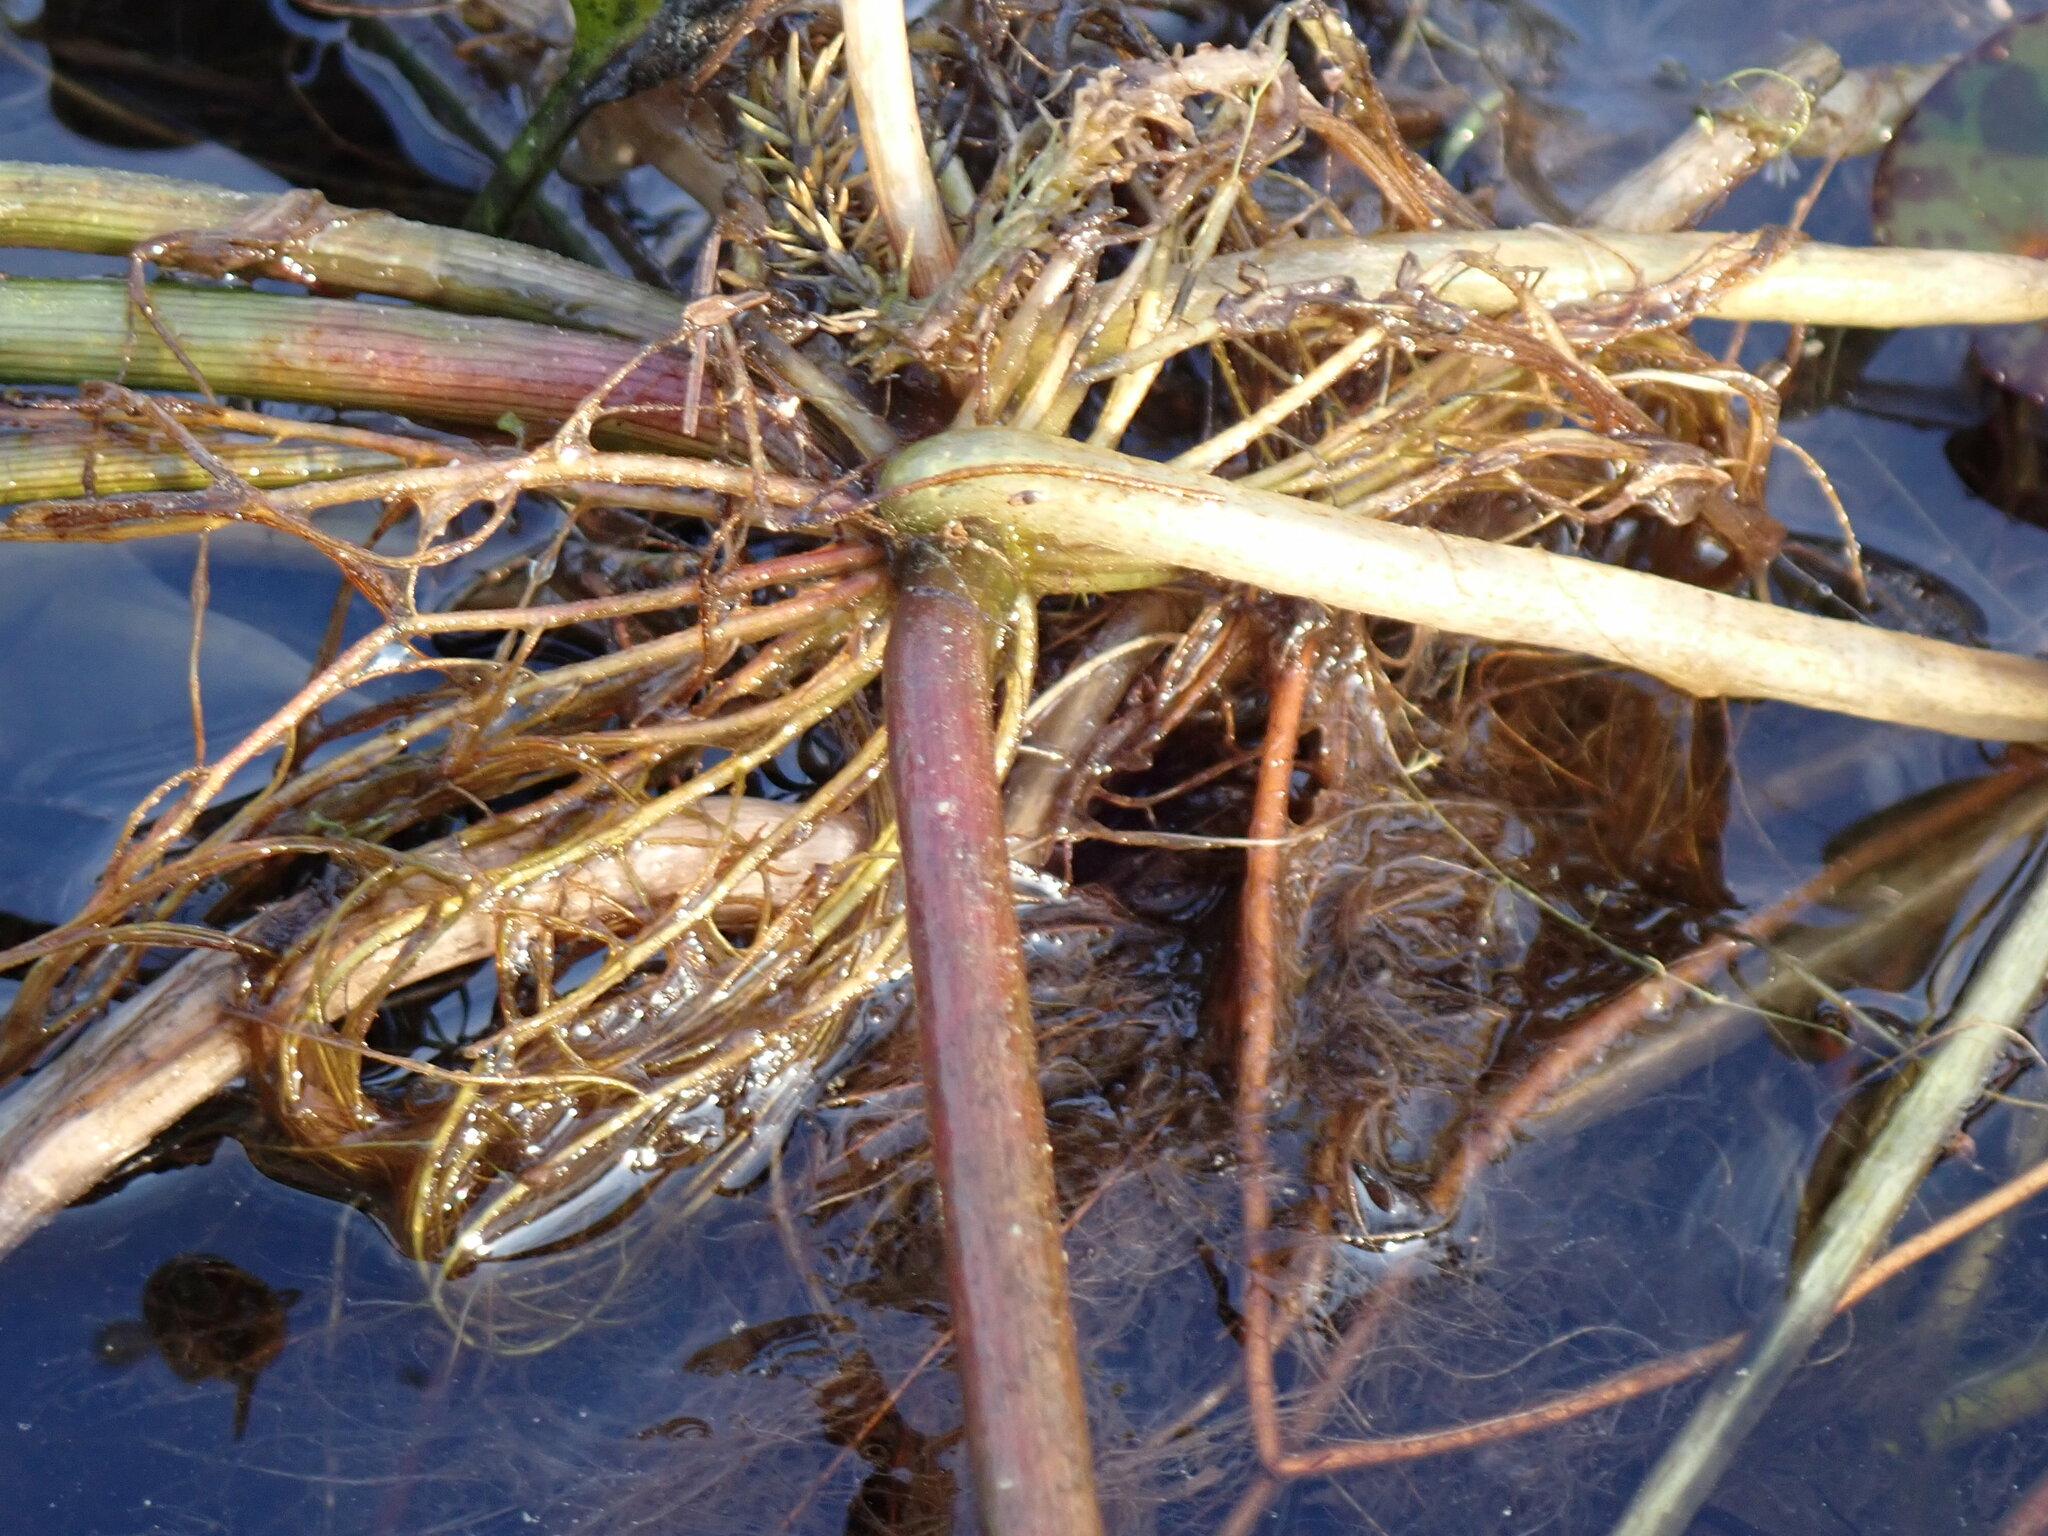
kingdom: Plantae
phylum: Tracheophyta
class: Liliopsida
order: Alismatales
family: Hydrocharitaceae
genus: Hydrocharis
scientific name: Hydrocharis spongia
